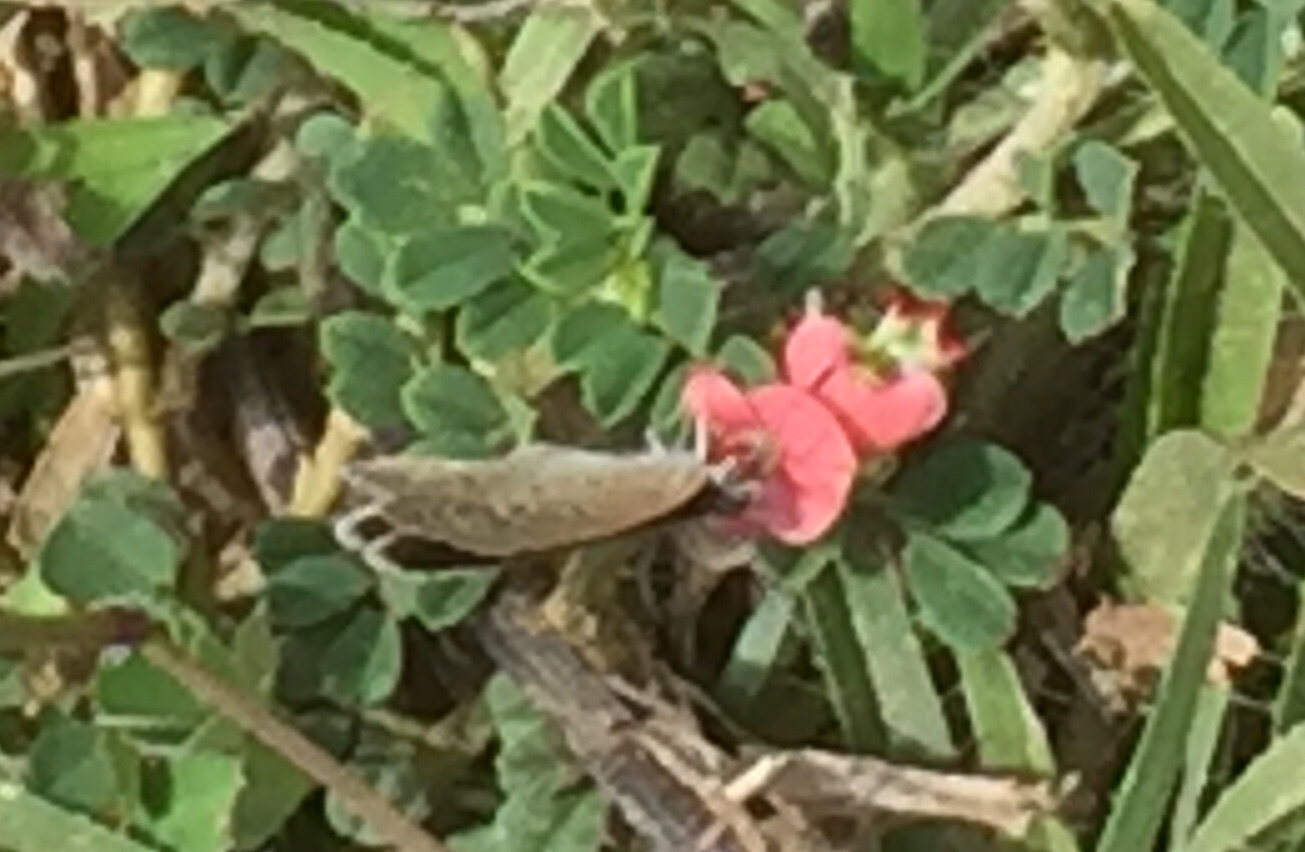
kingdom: Animalia
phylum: Arthropoda
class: Insecta
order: Lepidoptera
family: Lycaenidae
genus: Zizina
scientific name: Zizina otis
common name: Lesser grass blue
